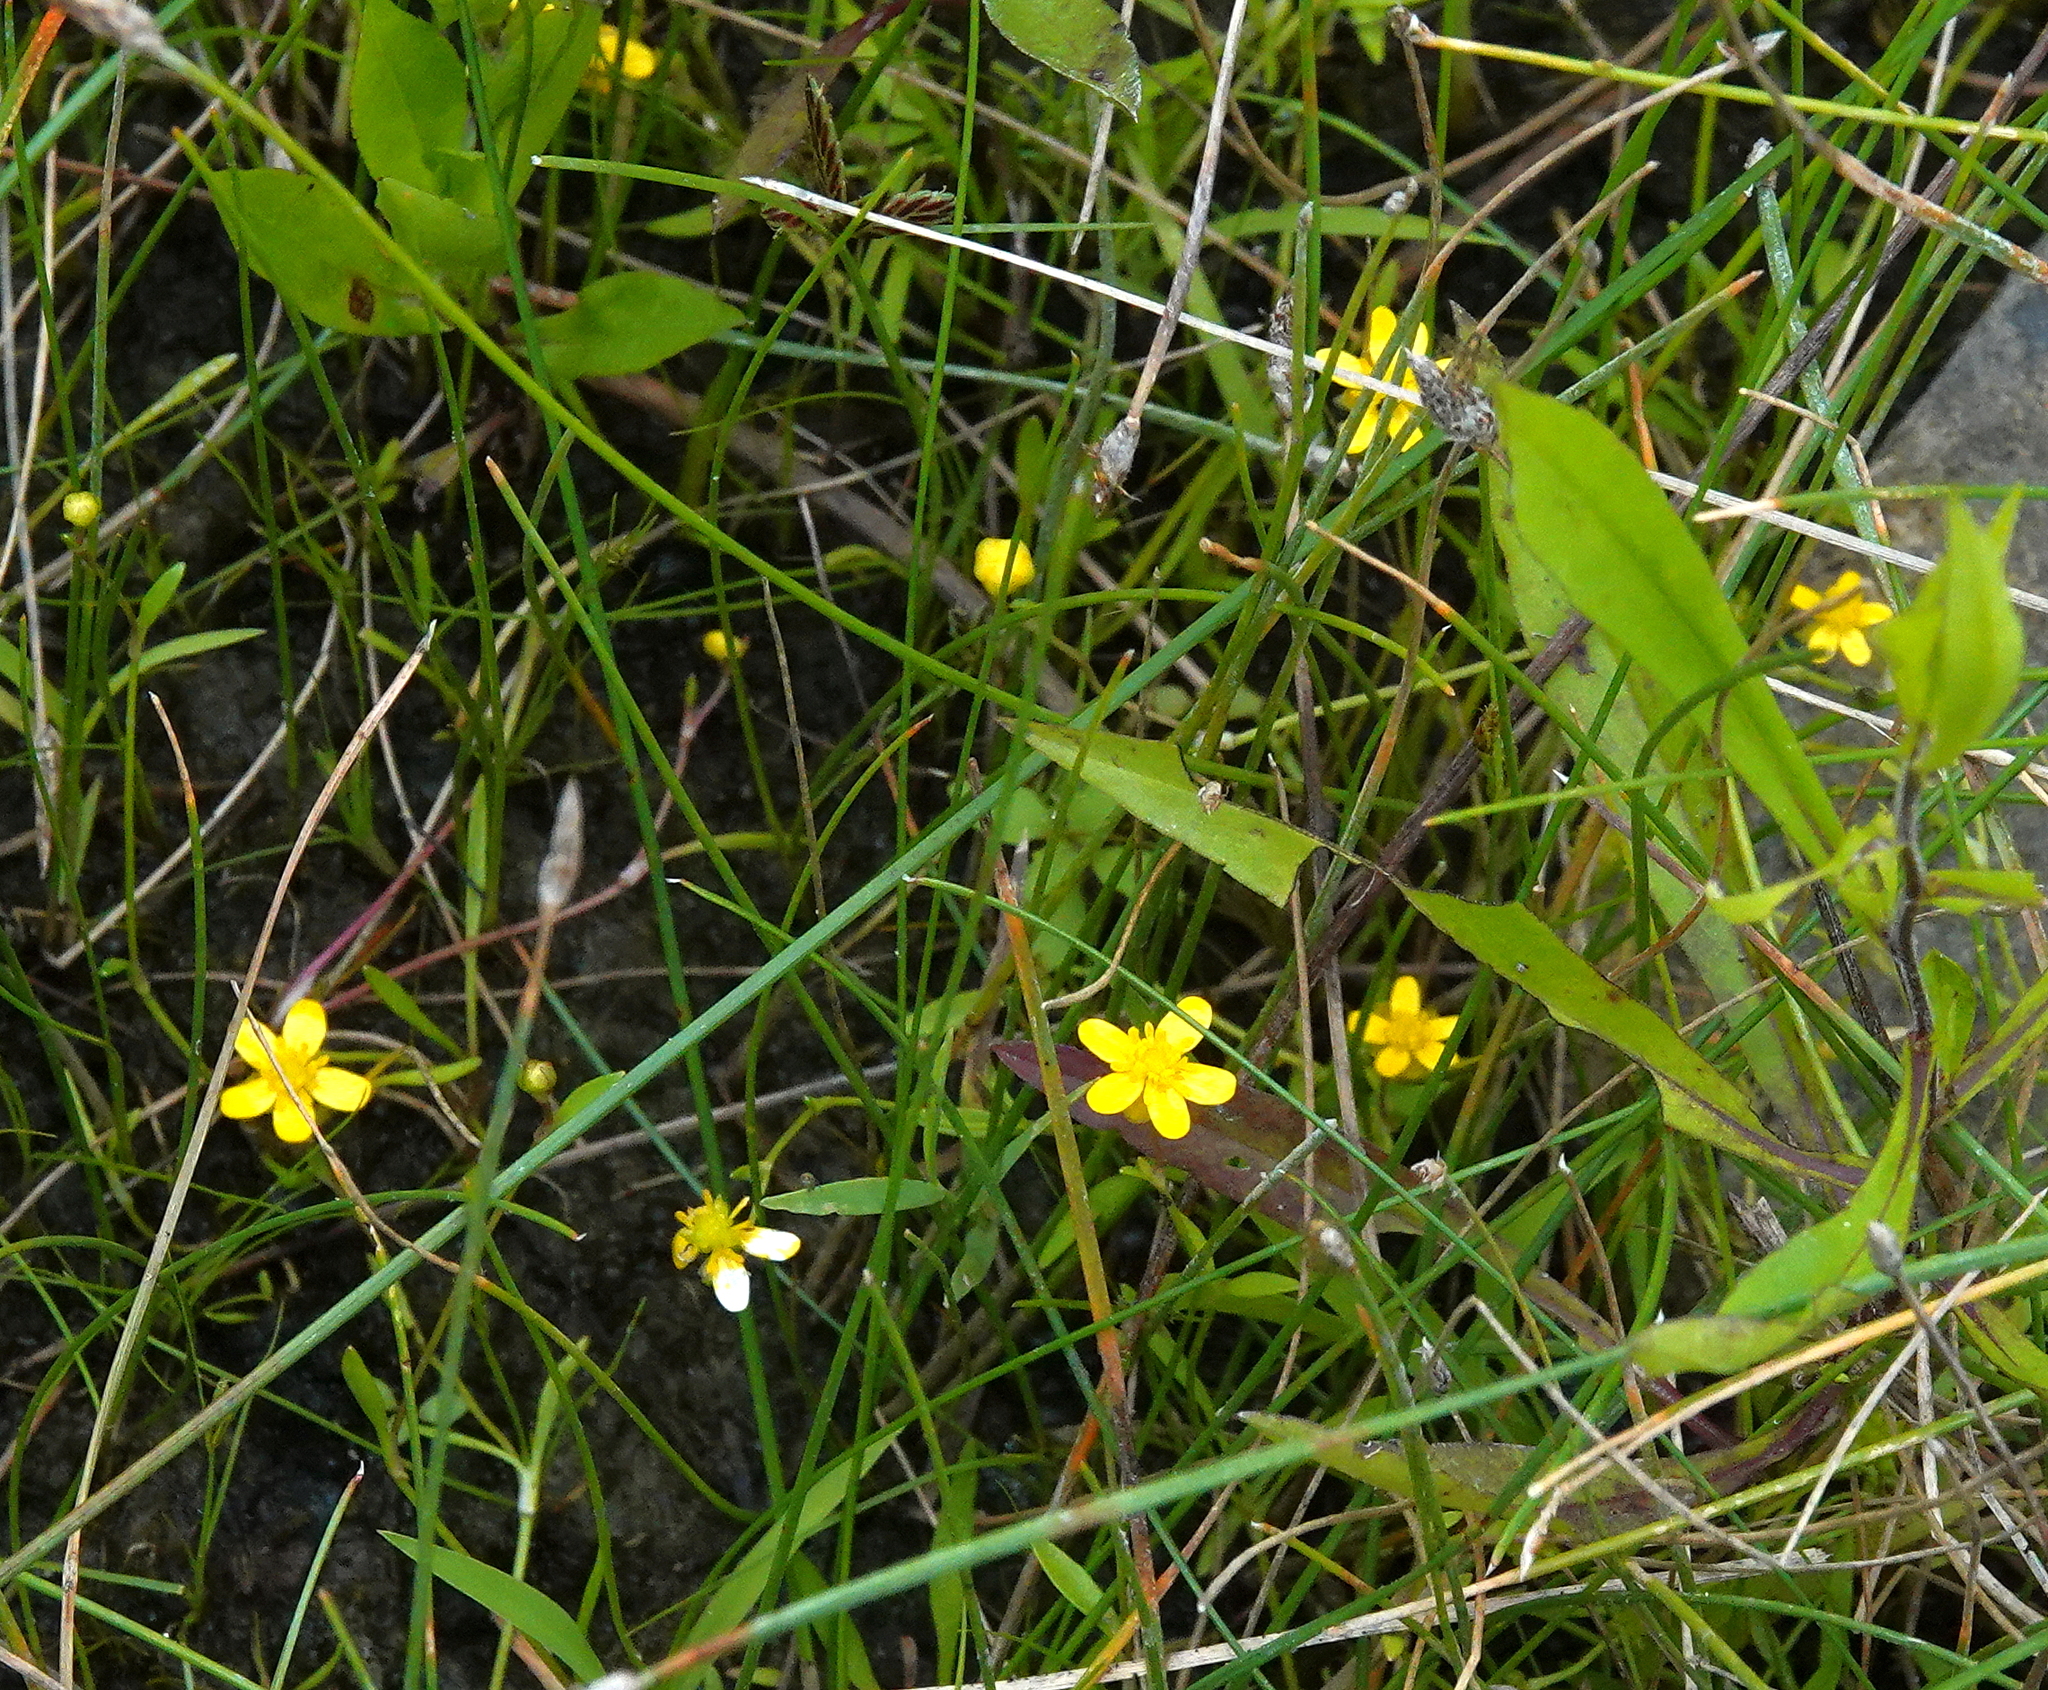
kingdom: Plantae
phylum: Tracheophyta
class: Magnoliopsida
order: Ranunculales
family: Ranunculaceae
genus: Ranunculus
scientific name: Ranunculus reptans
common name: Creeping spearwort
